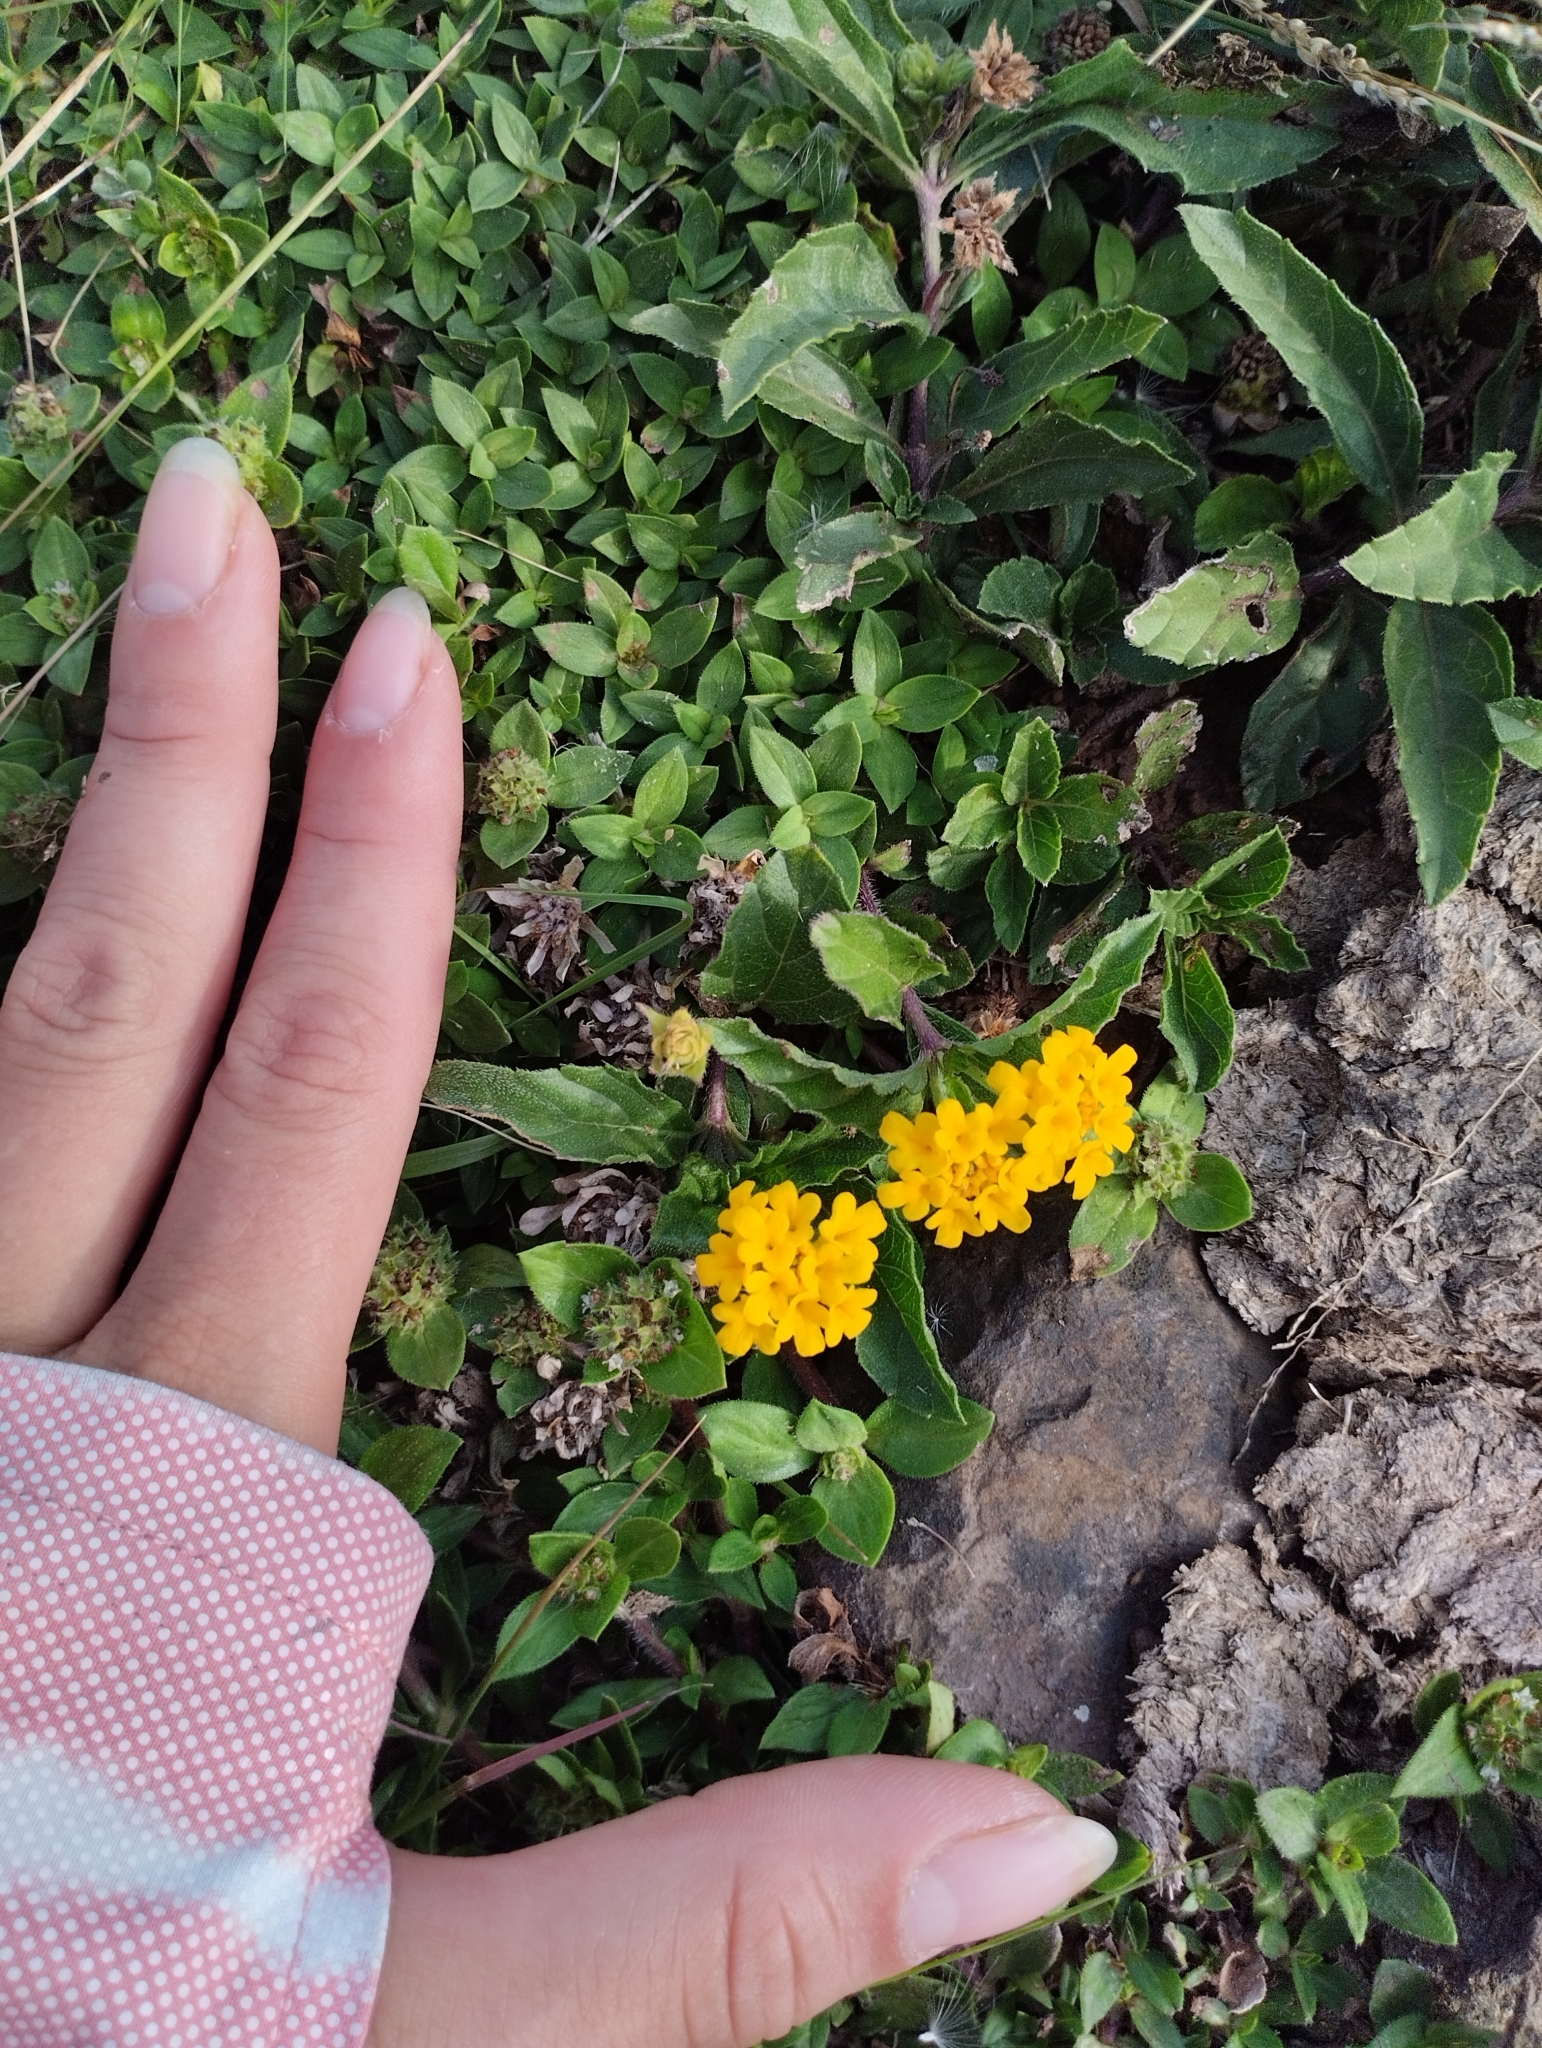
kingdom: Plantae
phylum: Tracheophyta
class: Magnoliopsida
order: Lamiales
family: Verbenaceae
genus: Lippia
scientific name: Lippia coarctata
